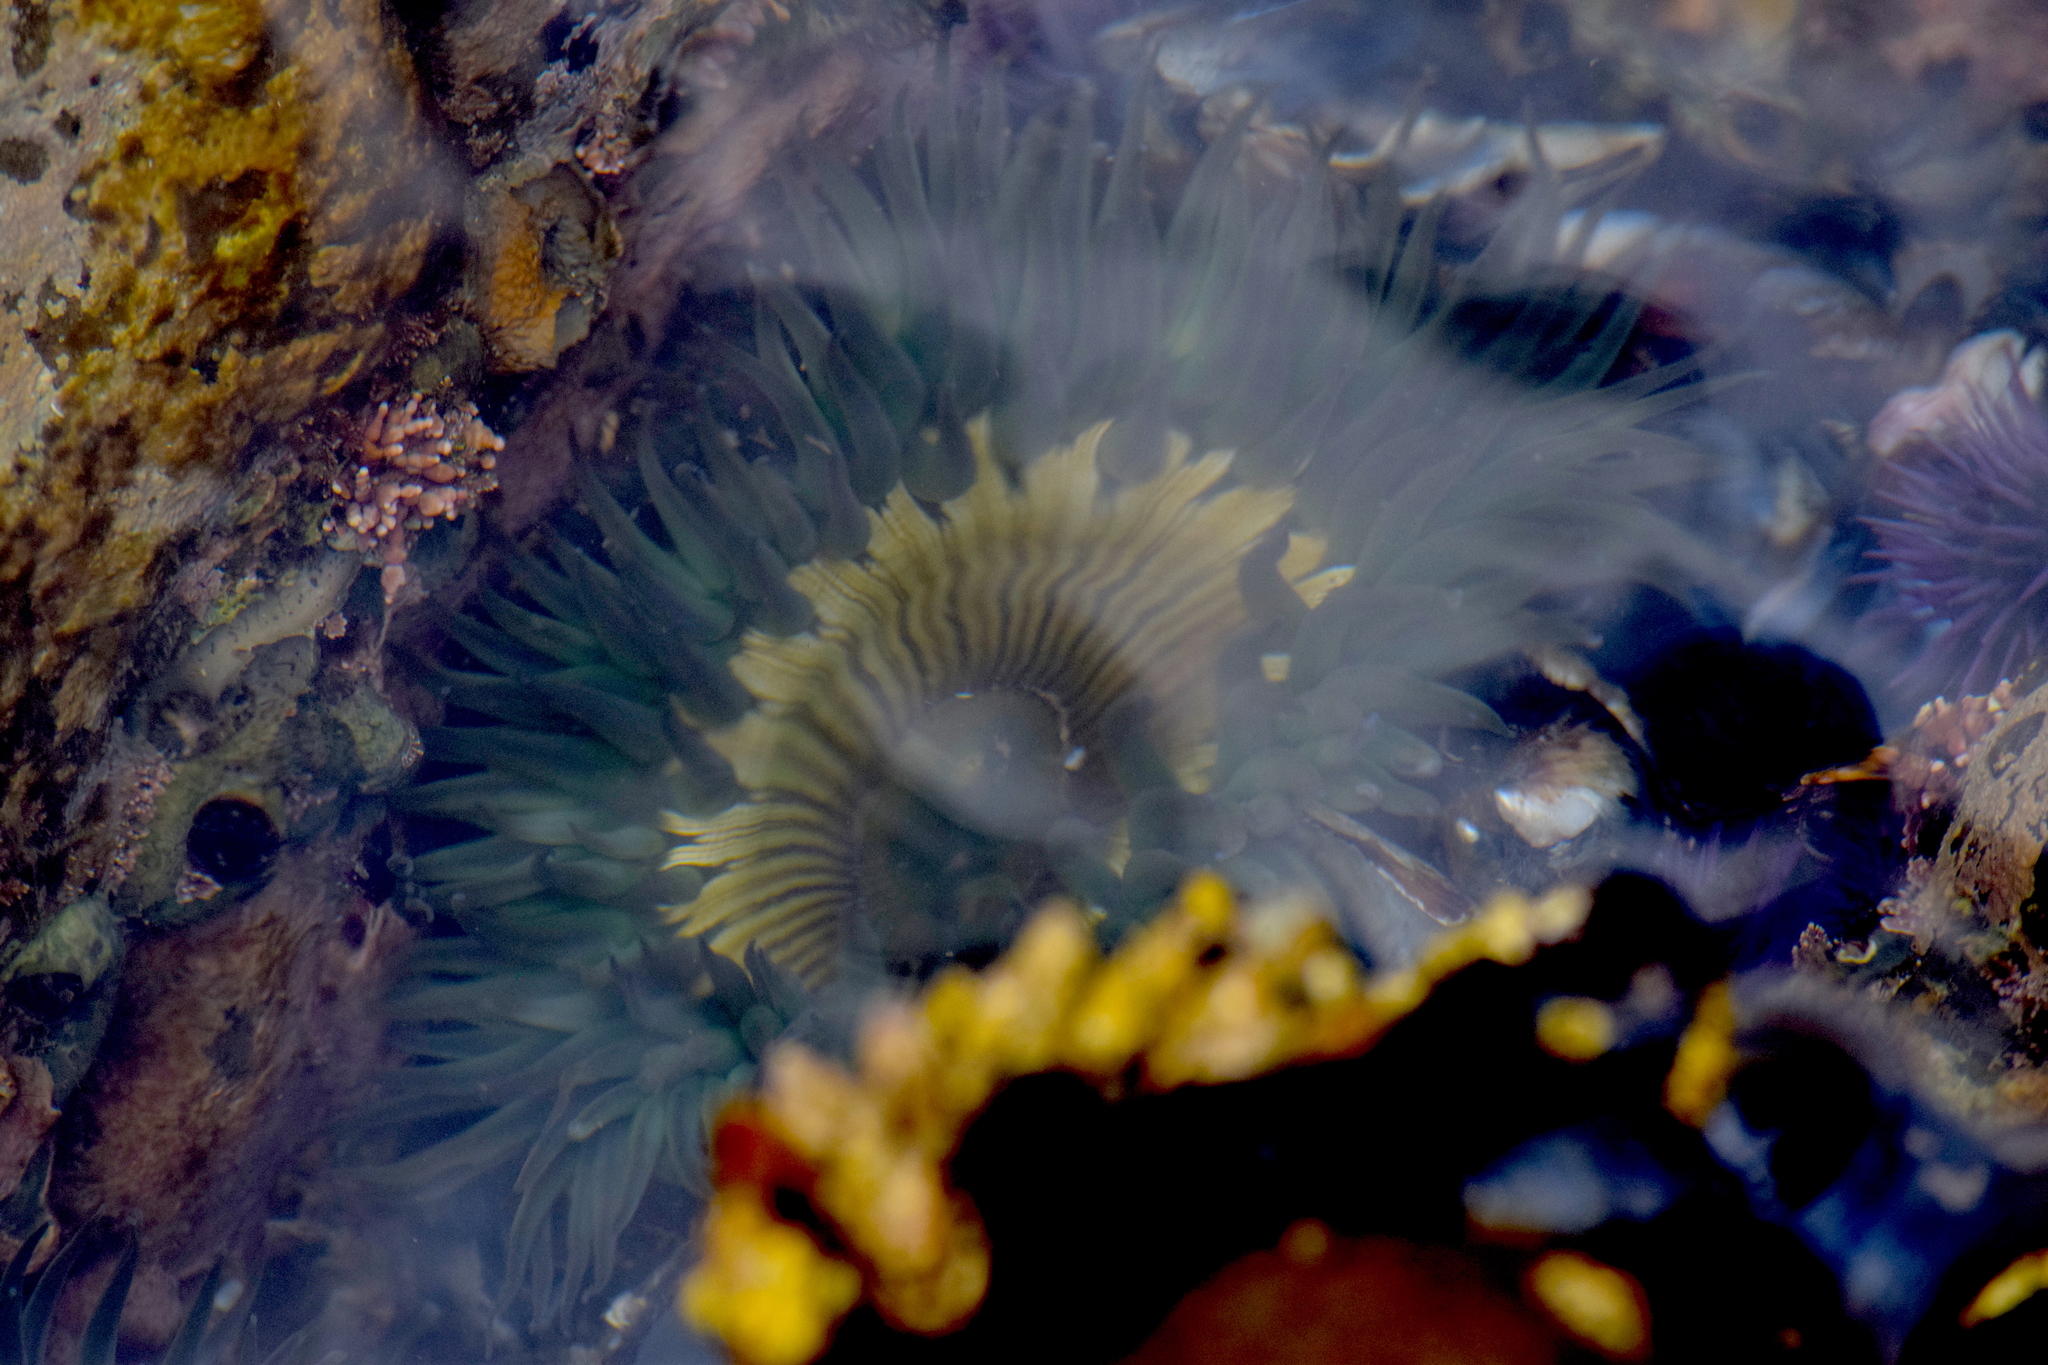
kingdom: Animalia
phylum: Cnidaria
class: Anthozoa
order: Actiniaria
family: Actiniidae
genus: Anthopleura
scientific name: Anthopleura sola
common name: Sun anemone
